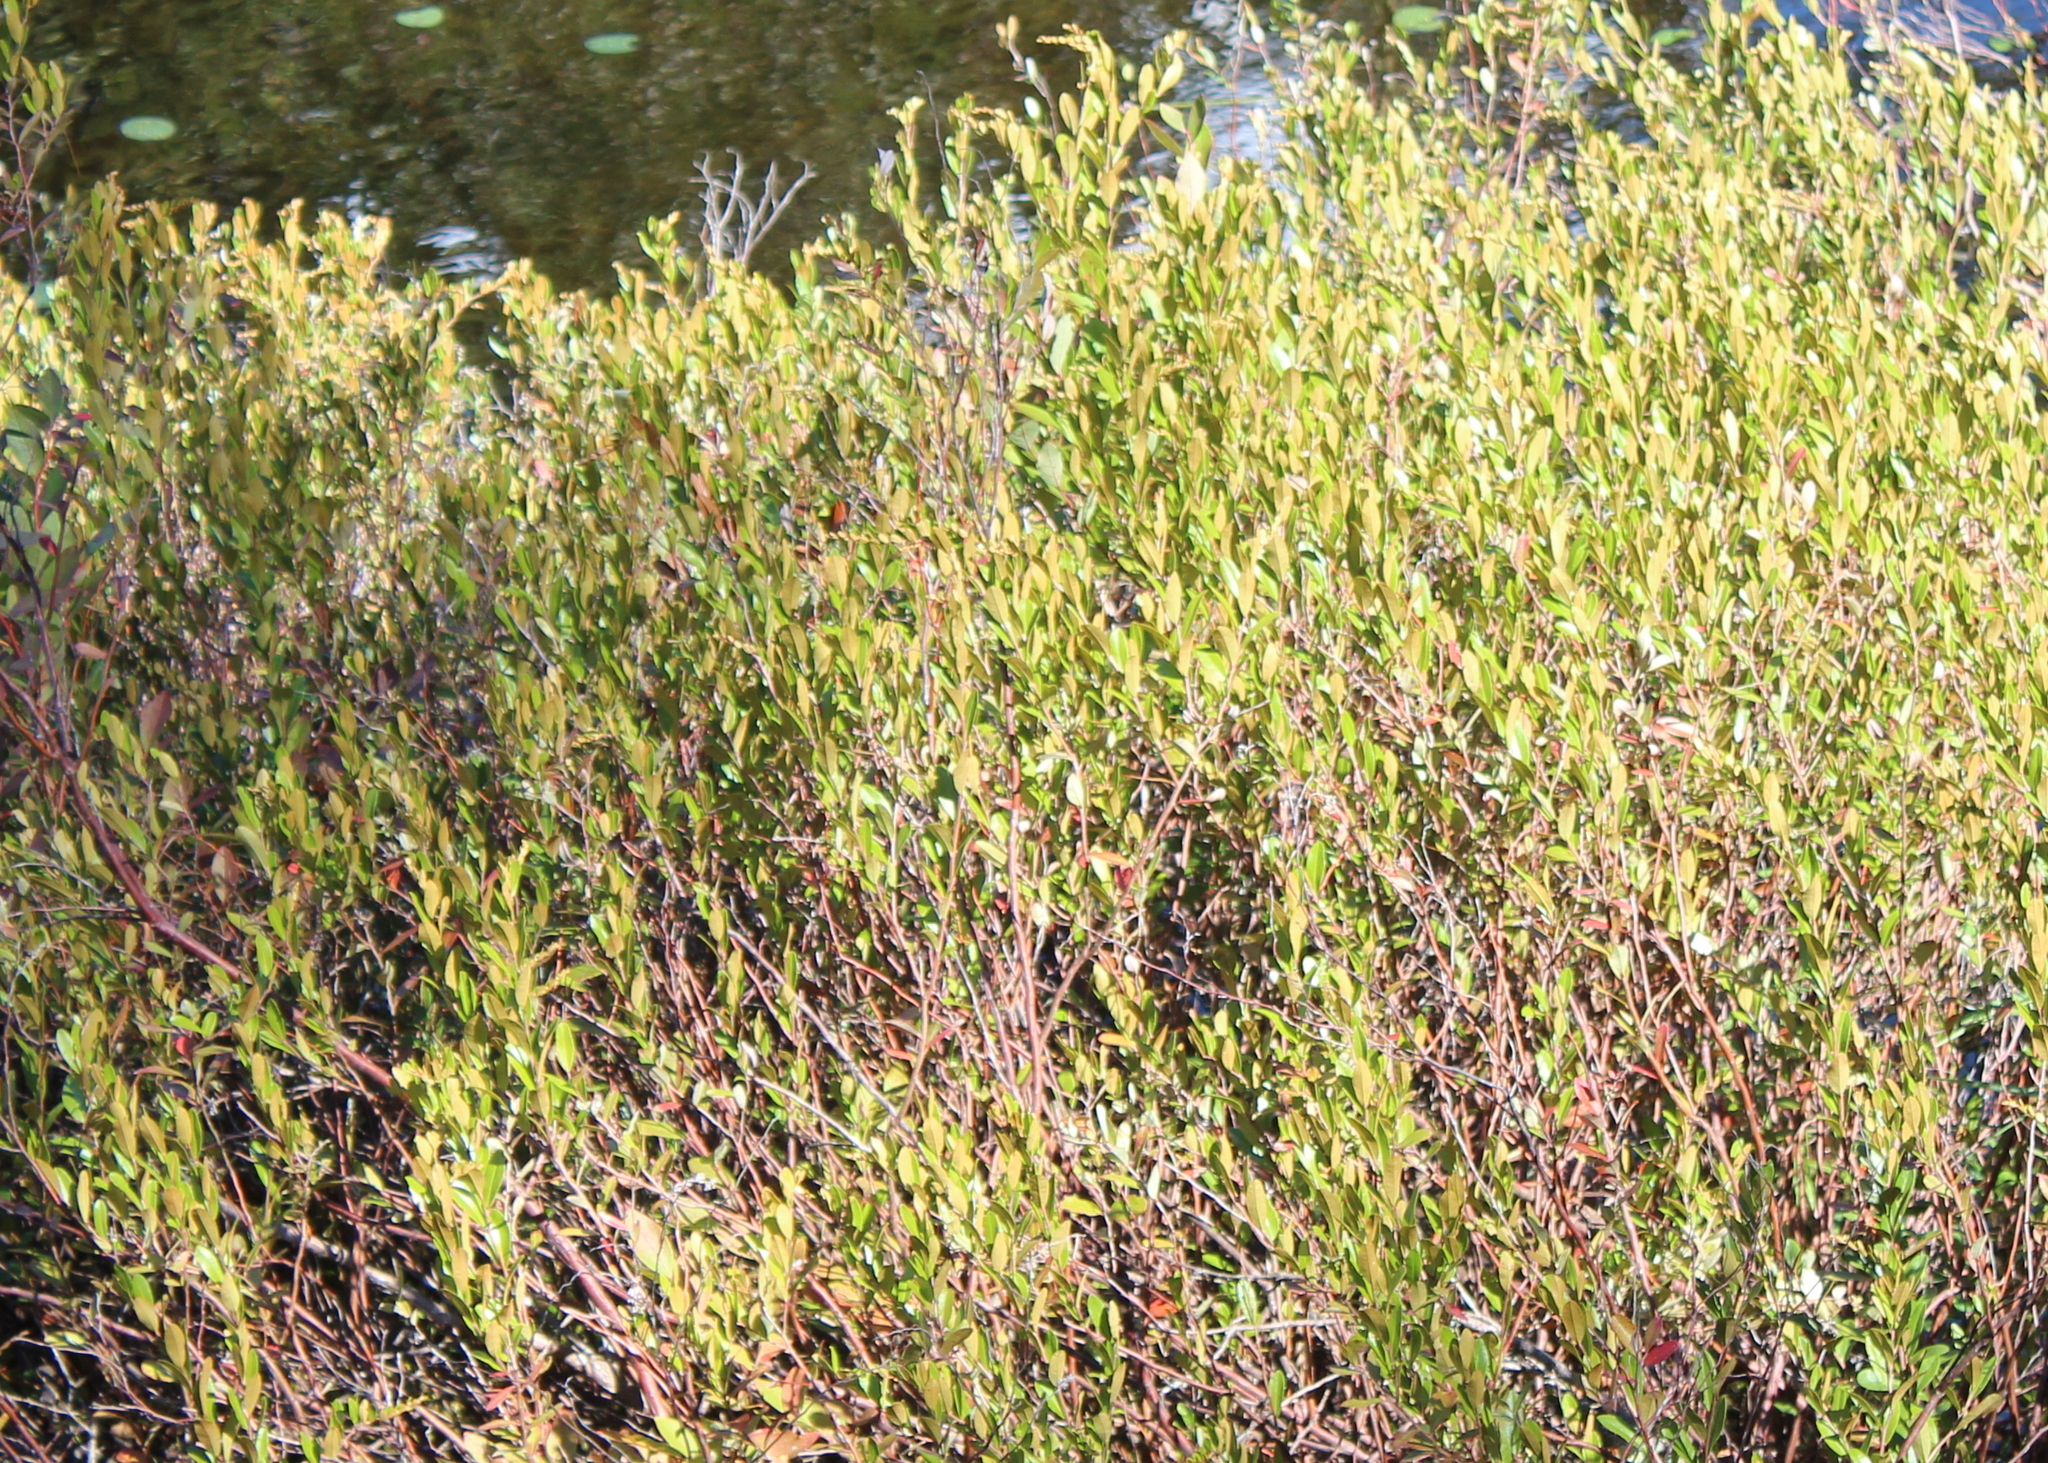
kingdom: Plantae
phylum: Tracheophyta
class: Magnoliopsida
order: Ericales
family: Ericaceae
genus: Chamaedaphne
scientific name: Chamaedaphne calyculata
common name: Leatherleaf
